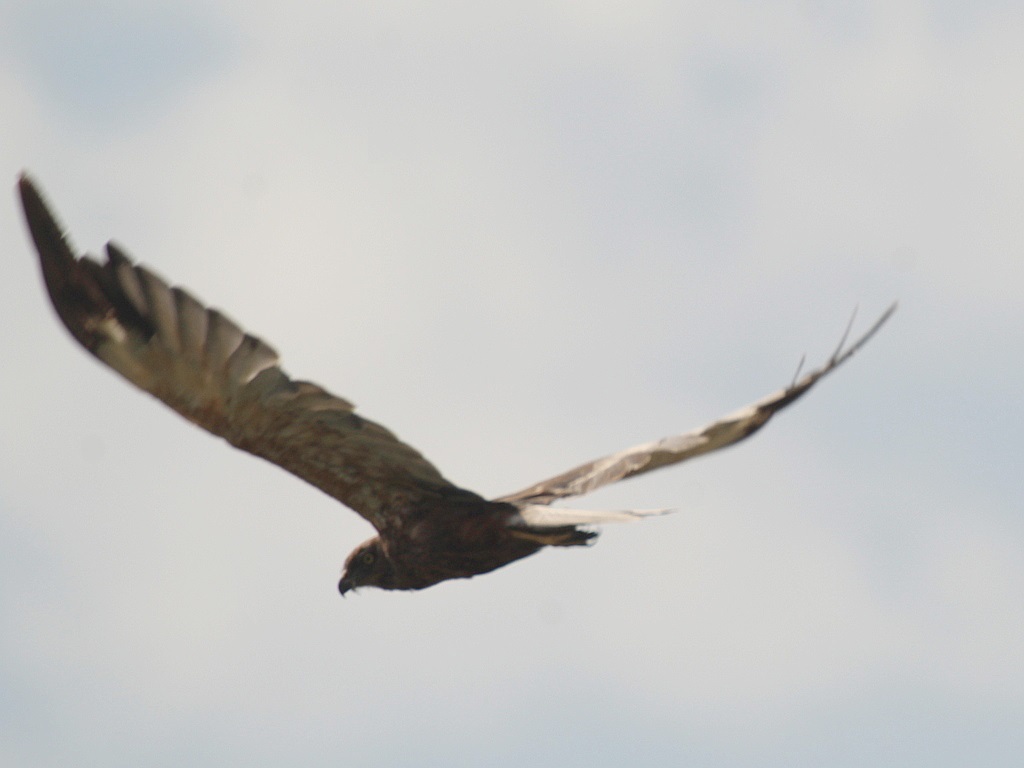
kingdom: Animalia
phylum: Chordata
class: Aves
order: Accipitriformes
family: Accipitridae
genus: Circus
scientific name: Circus aeruginosus
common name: Western marsh harrier
